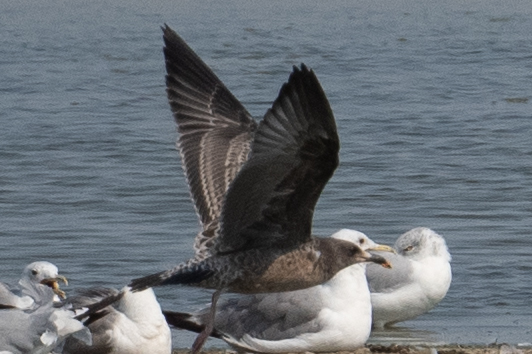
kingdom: Animalia
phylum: Chordata
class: Aves
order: Charadriiformes
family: Laridae
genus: Larus
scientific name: Larus californicus
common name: California gull
